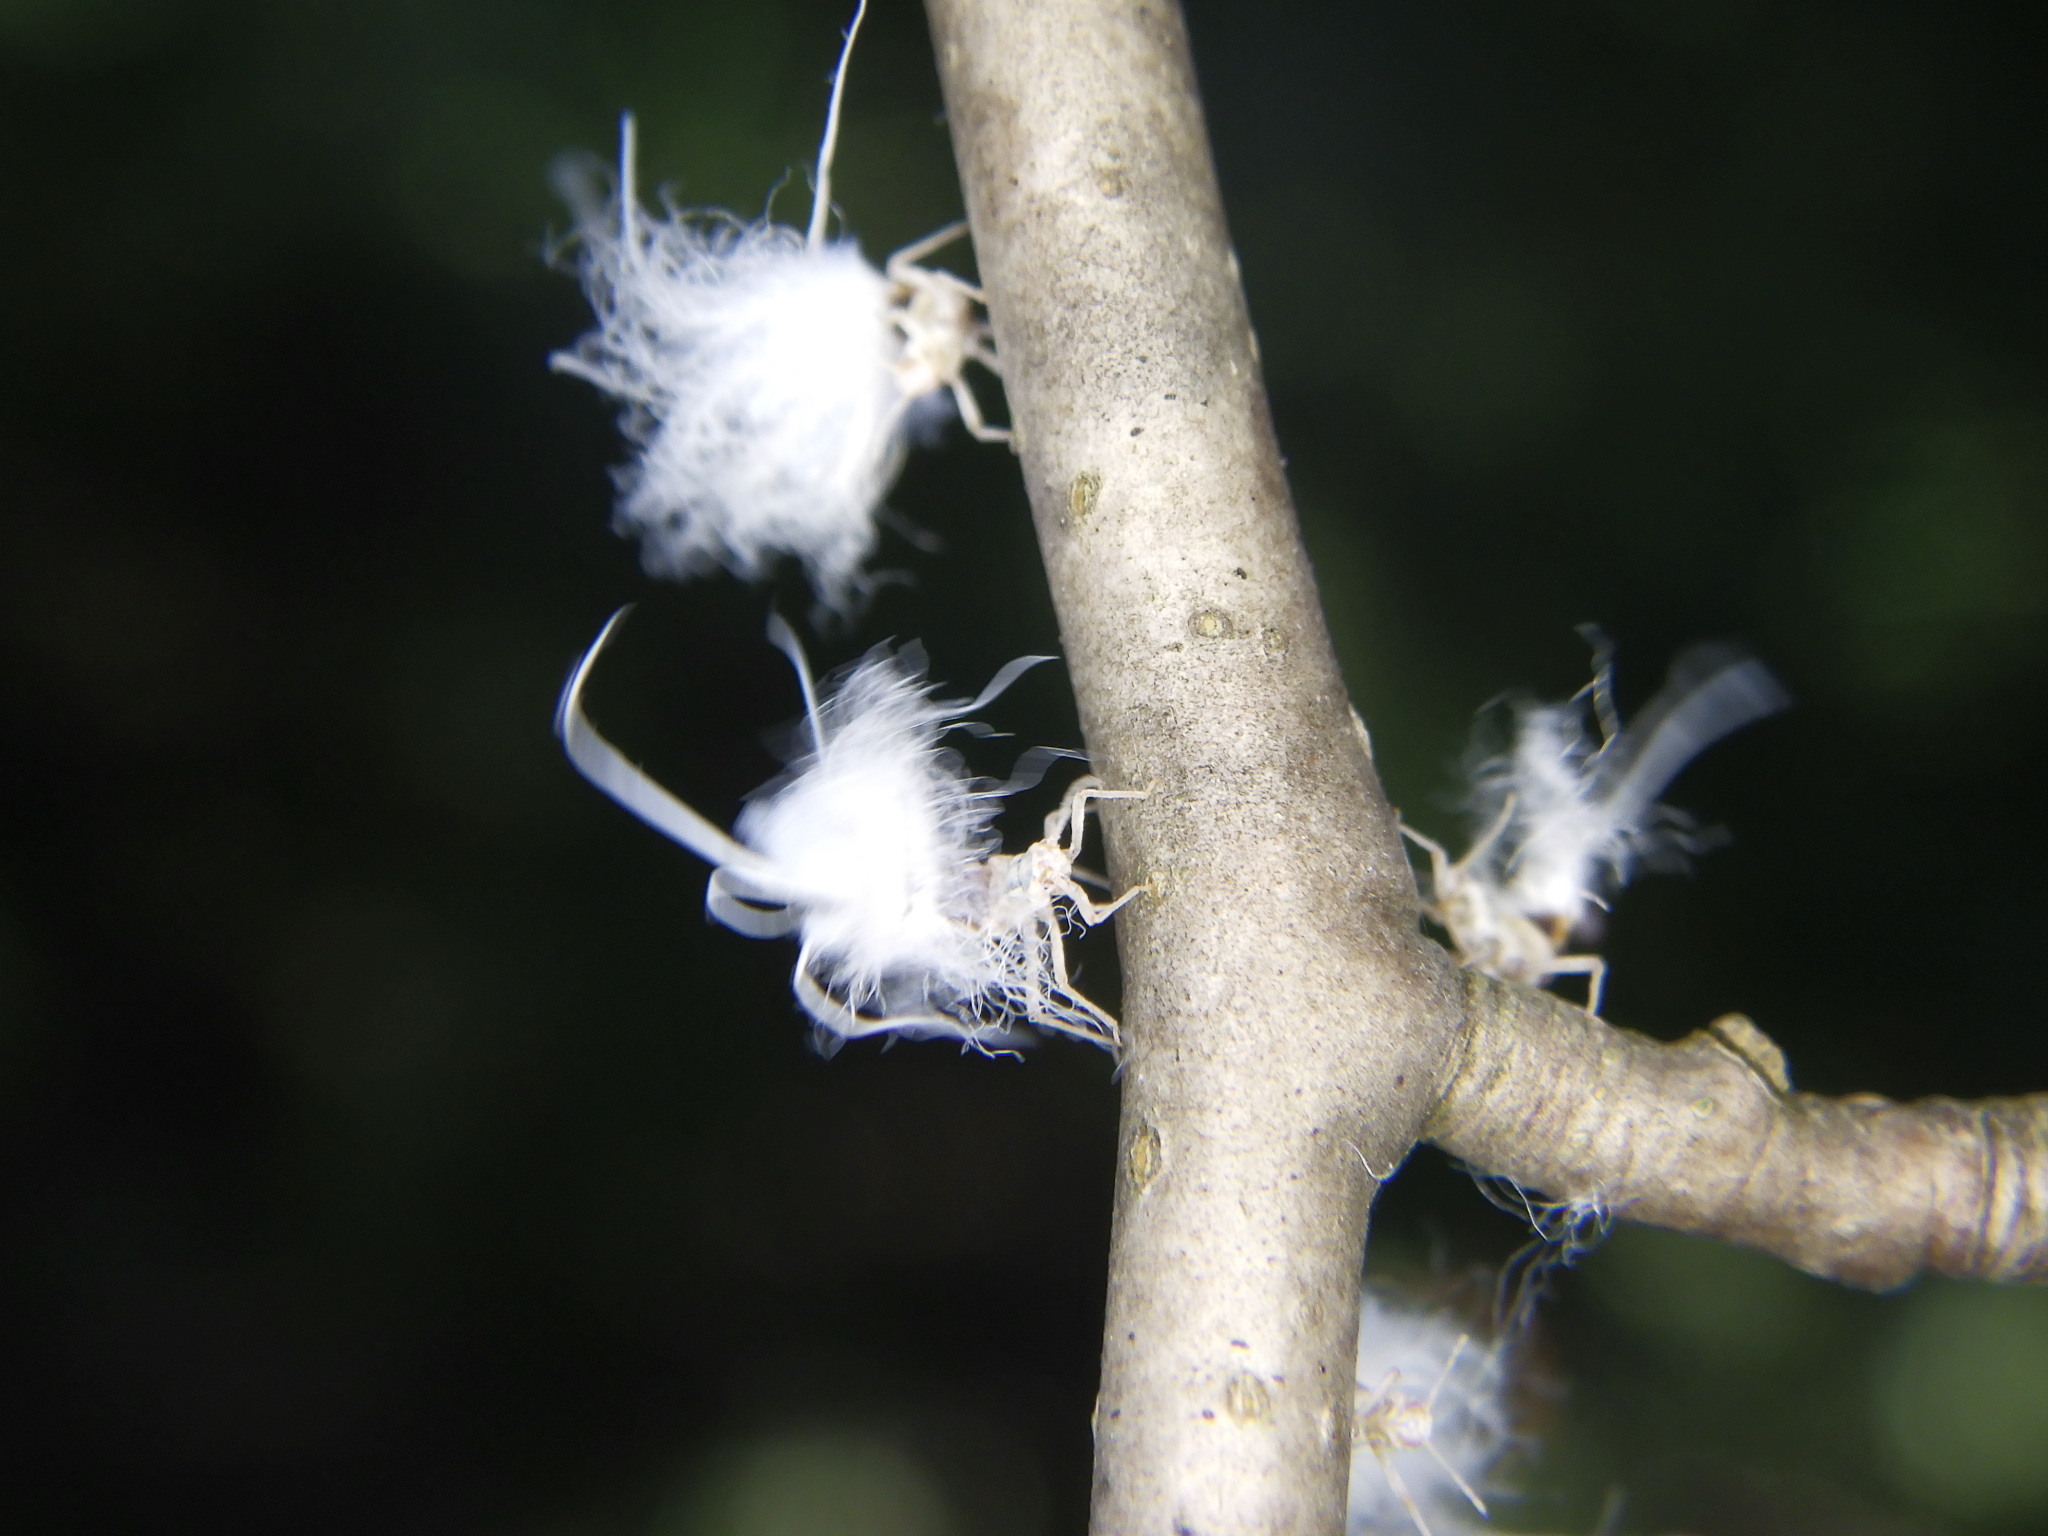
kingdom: Animalia
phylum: Arthropoda
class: Insecta
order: Hemiptera
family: Aphididae
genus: Grylloprociphilus
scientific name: Grylloprociphilus imbricator
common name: Beech blight aphid
